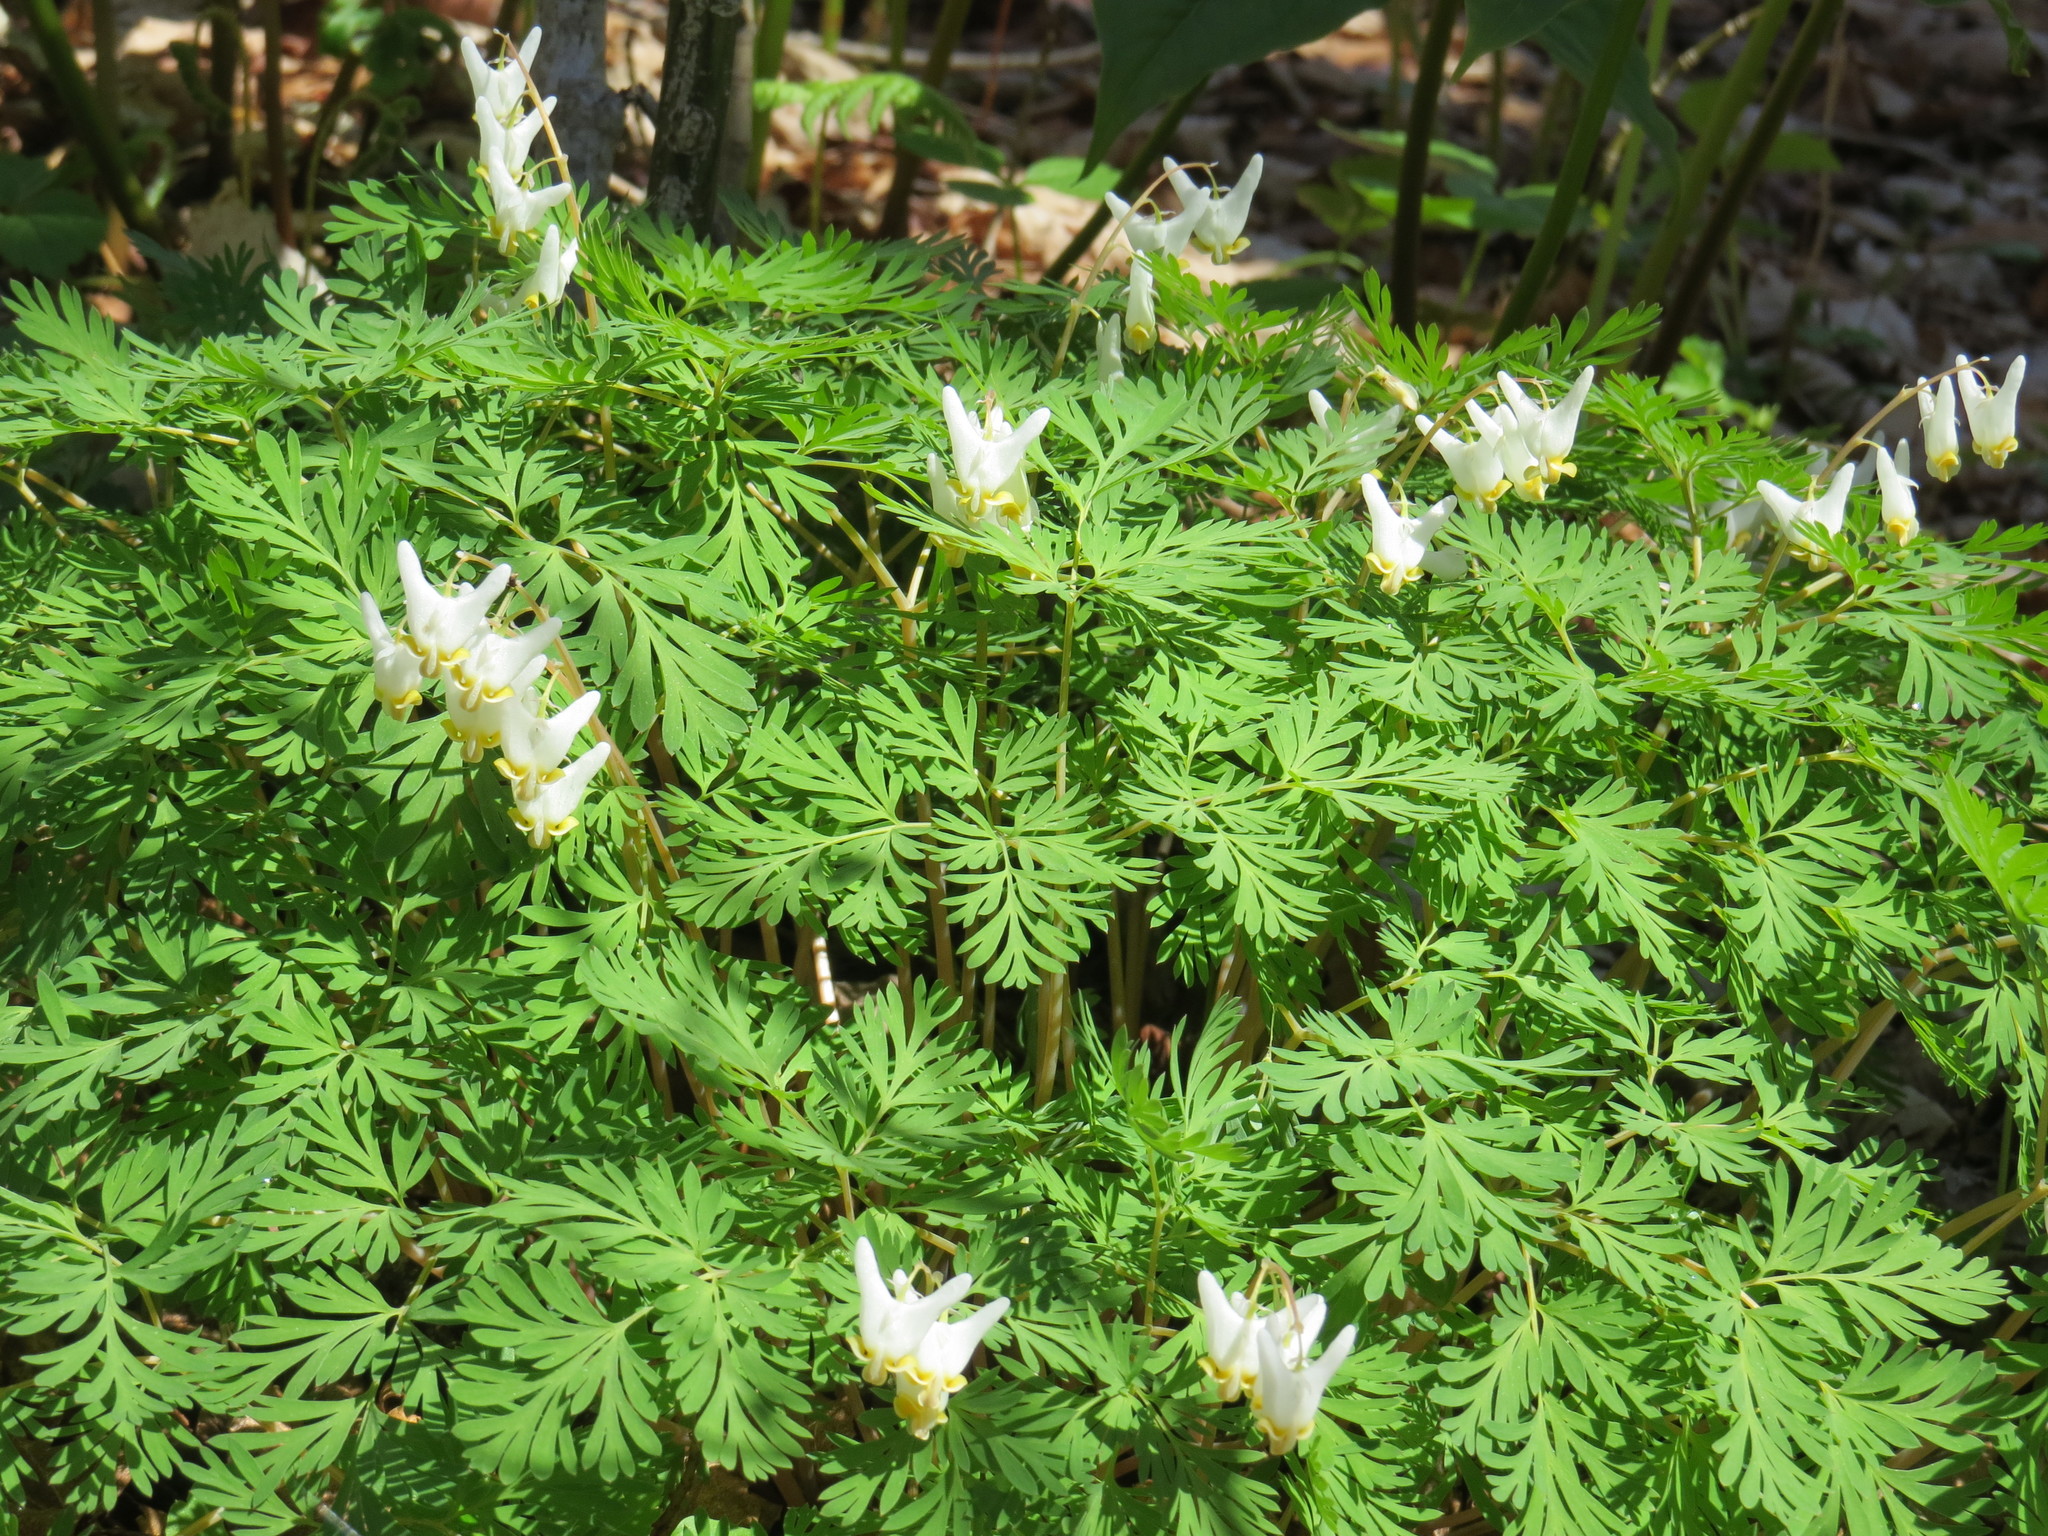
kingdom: Plantae
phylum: Tracheophyta
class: Magnoliopsida
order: Ranunculales
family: Papaveraceae
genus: Dicentra
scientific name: Dicentra cucullaria
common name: Dutchman's breeches
